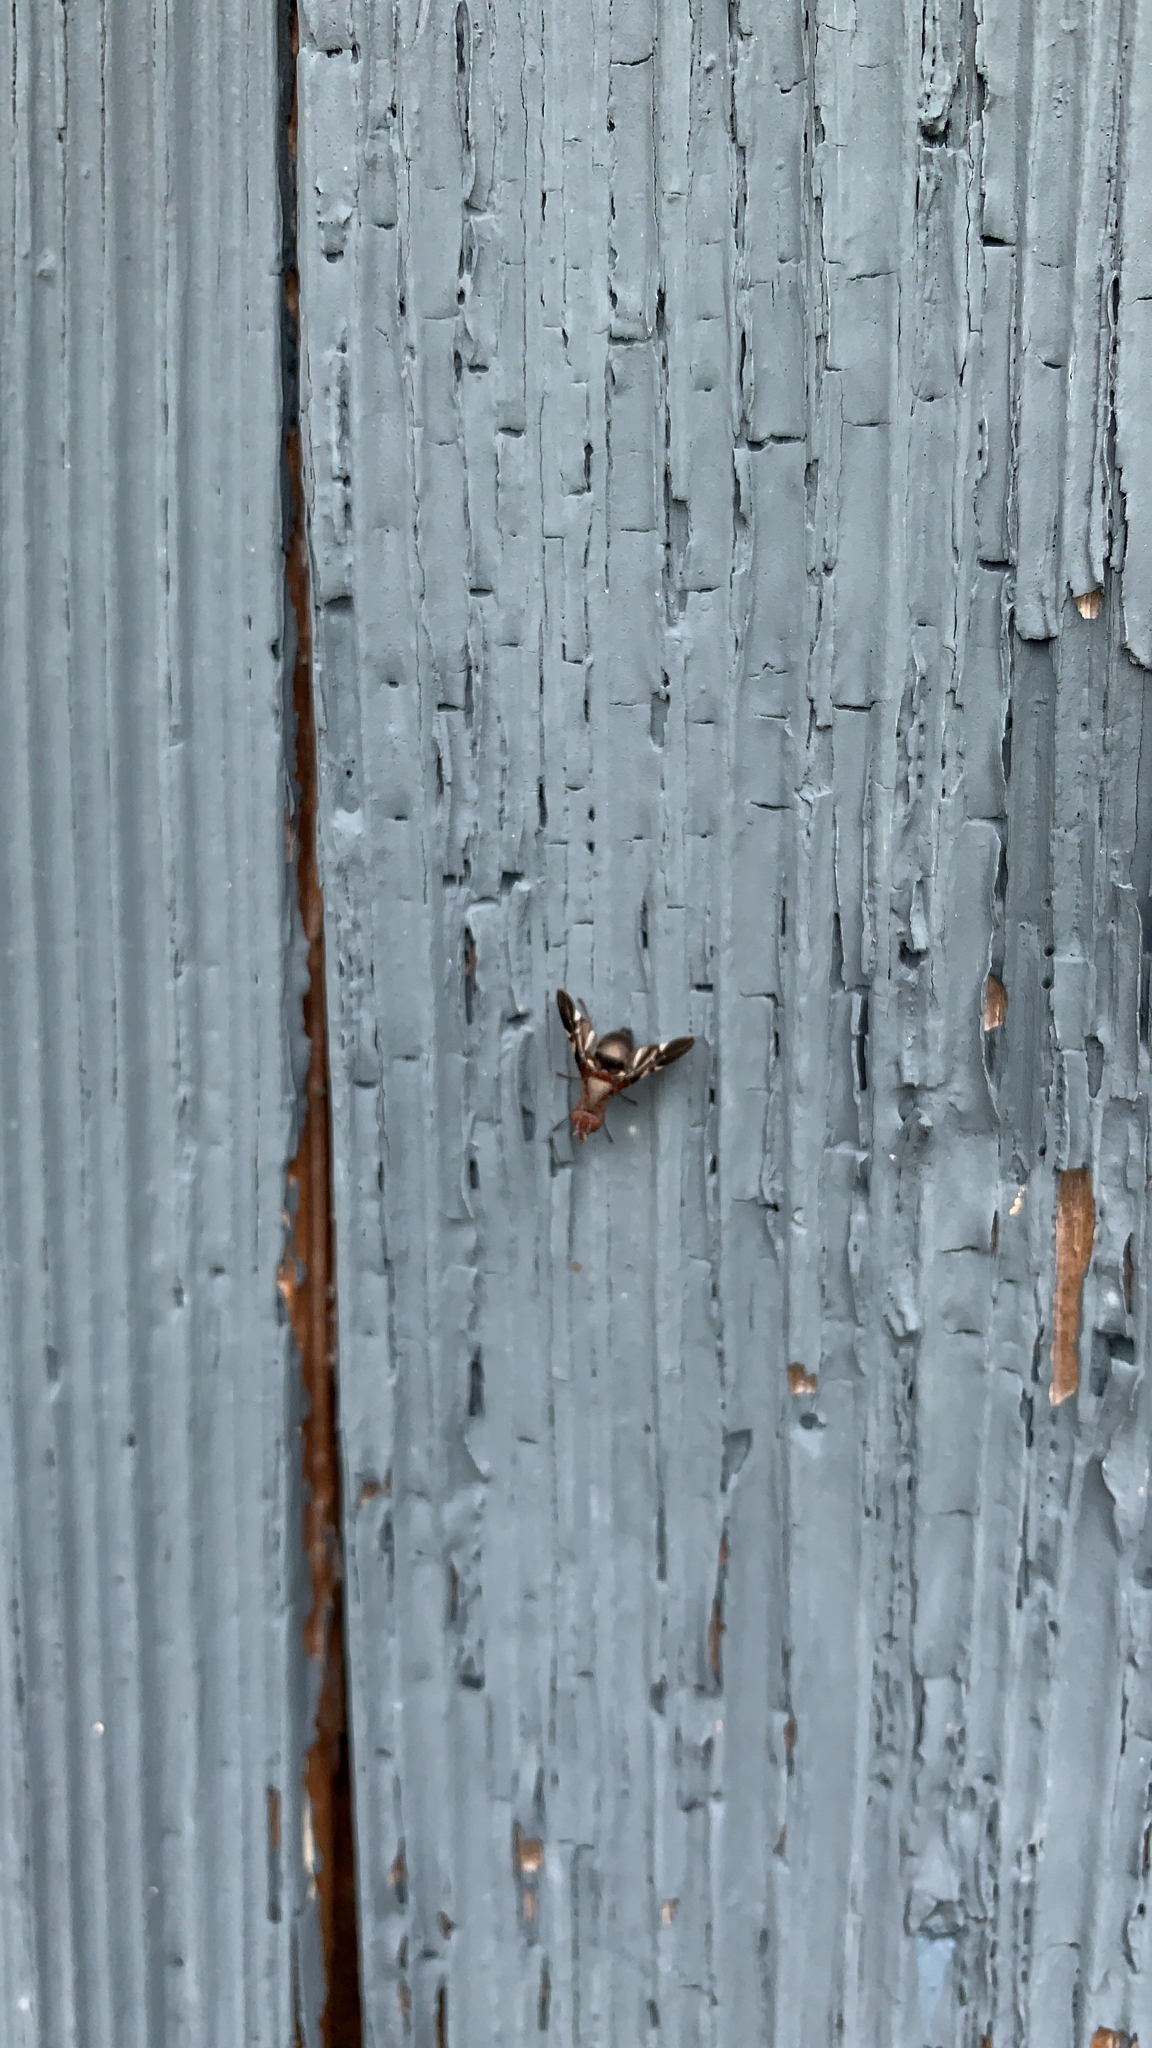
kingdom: Animalia
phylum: Arthropoda
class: Insecta
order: Diptera
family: Ulidiidae
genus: Delphinia
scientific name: Delphinia picta
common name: Common picture-winged fly
